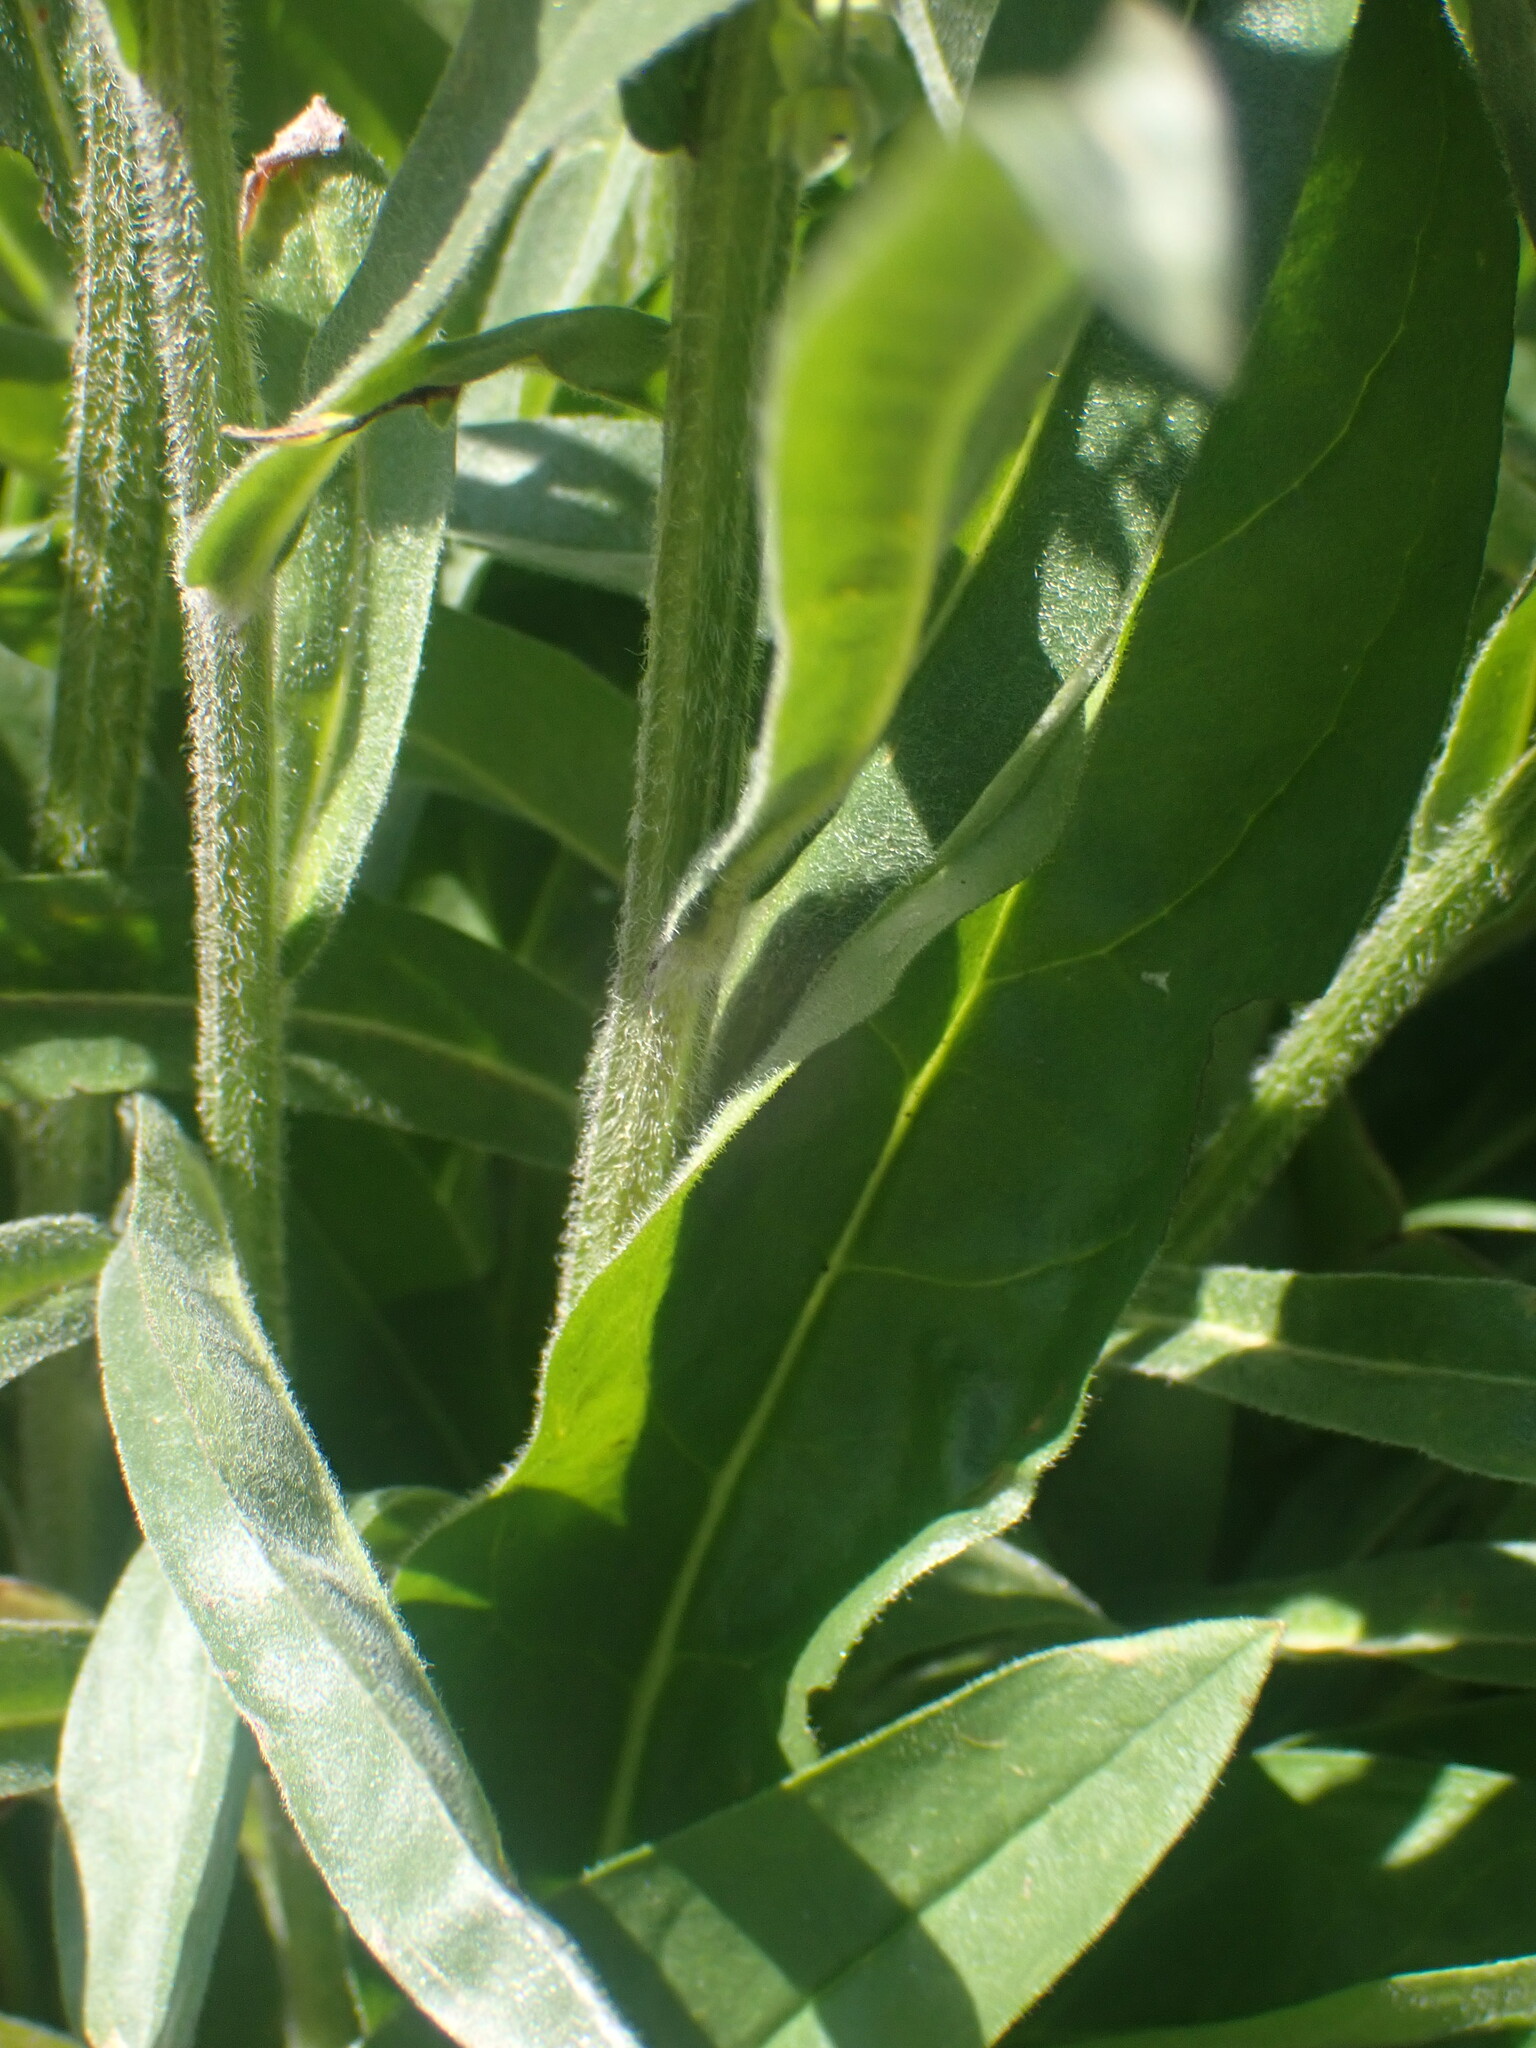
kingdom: Plantae
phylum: Tracheophyta
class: Magnoliopsida
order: Boraginales
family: Boraginaceae
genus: Myosotis
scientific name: Myosotis asiatica
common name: Asian forget-me-not
